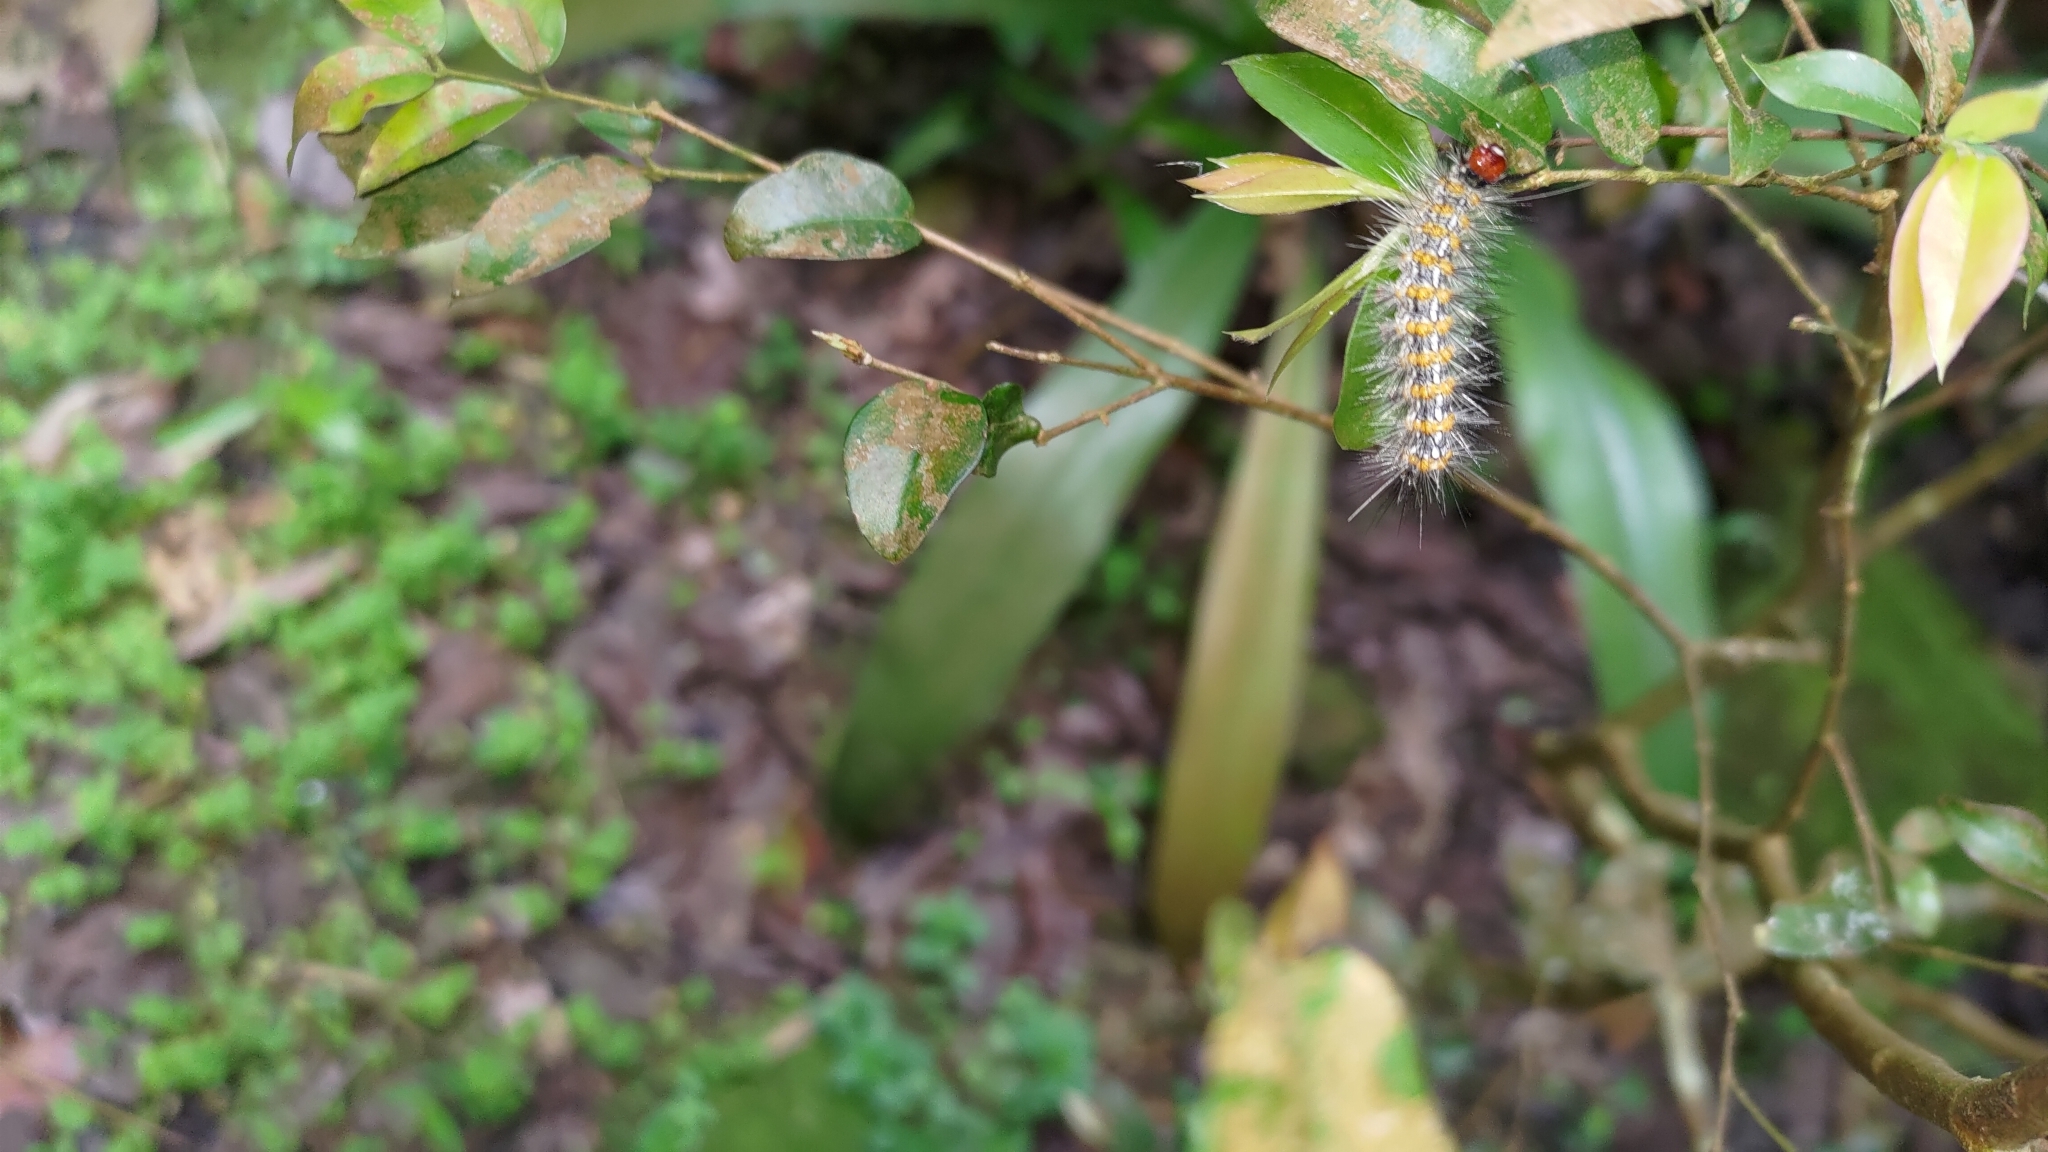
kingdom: Animalia
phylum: Arthropoda
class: Insecta
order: Lepidoptera
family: Erebidae
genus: Lemyra
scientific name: Lemyra imparilis
